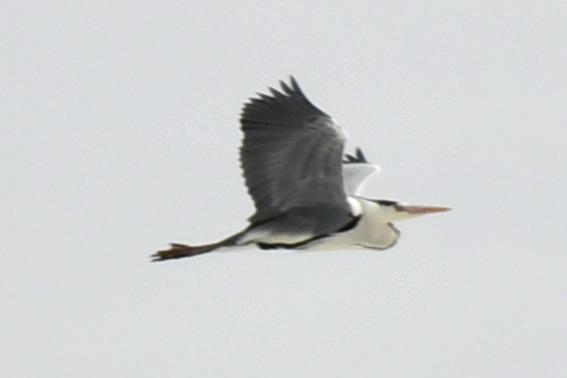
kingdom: Animalia
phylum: Chordata
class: Aves
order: Pelecaniformes
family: Ardeidae
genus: Ardea
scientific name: Ardea cinerea
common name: Grey heron
